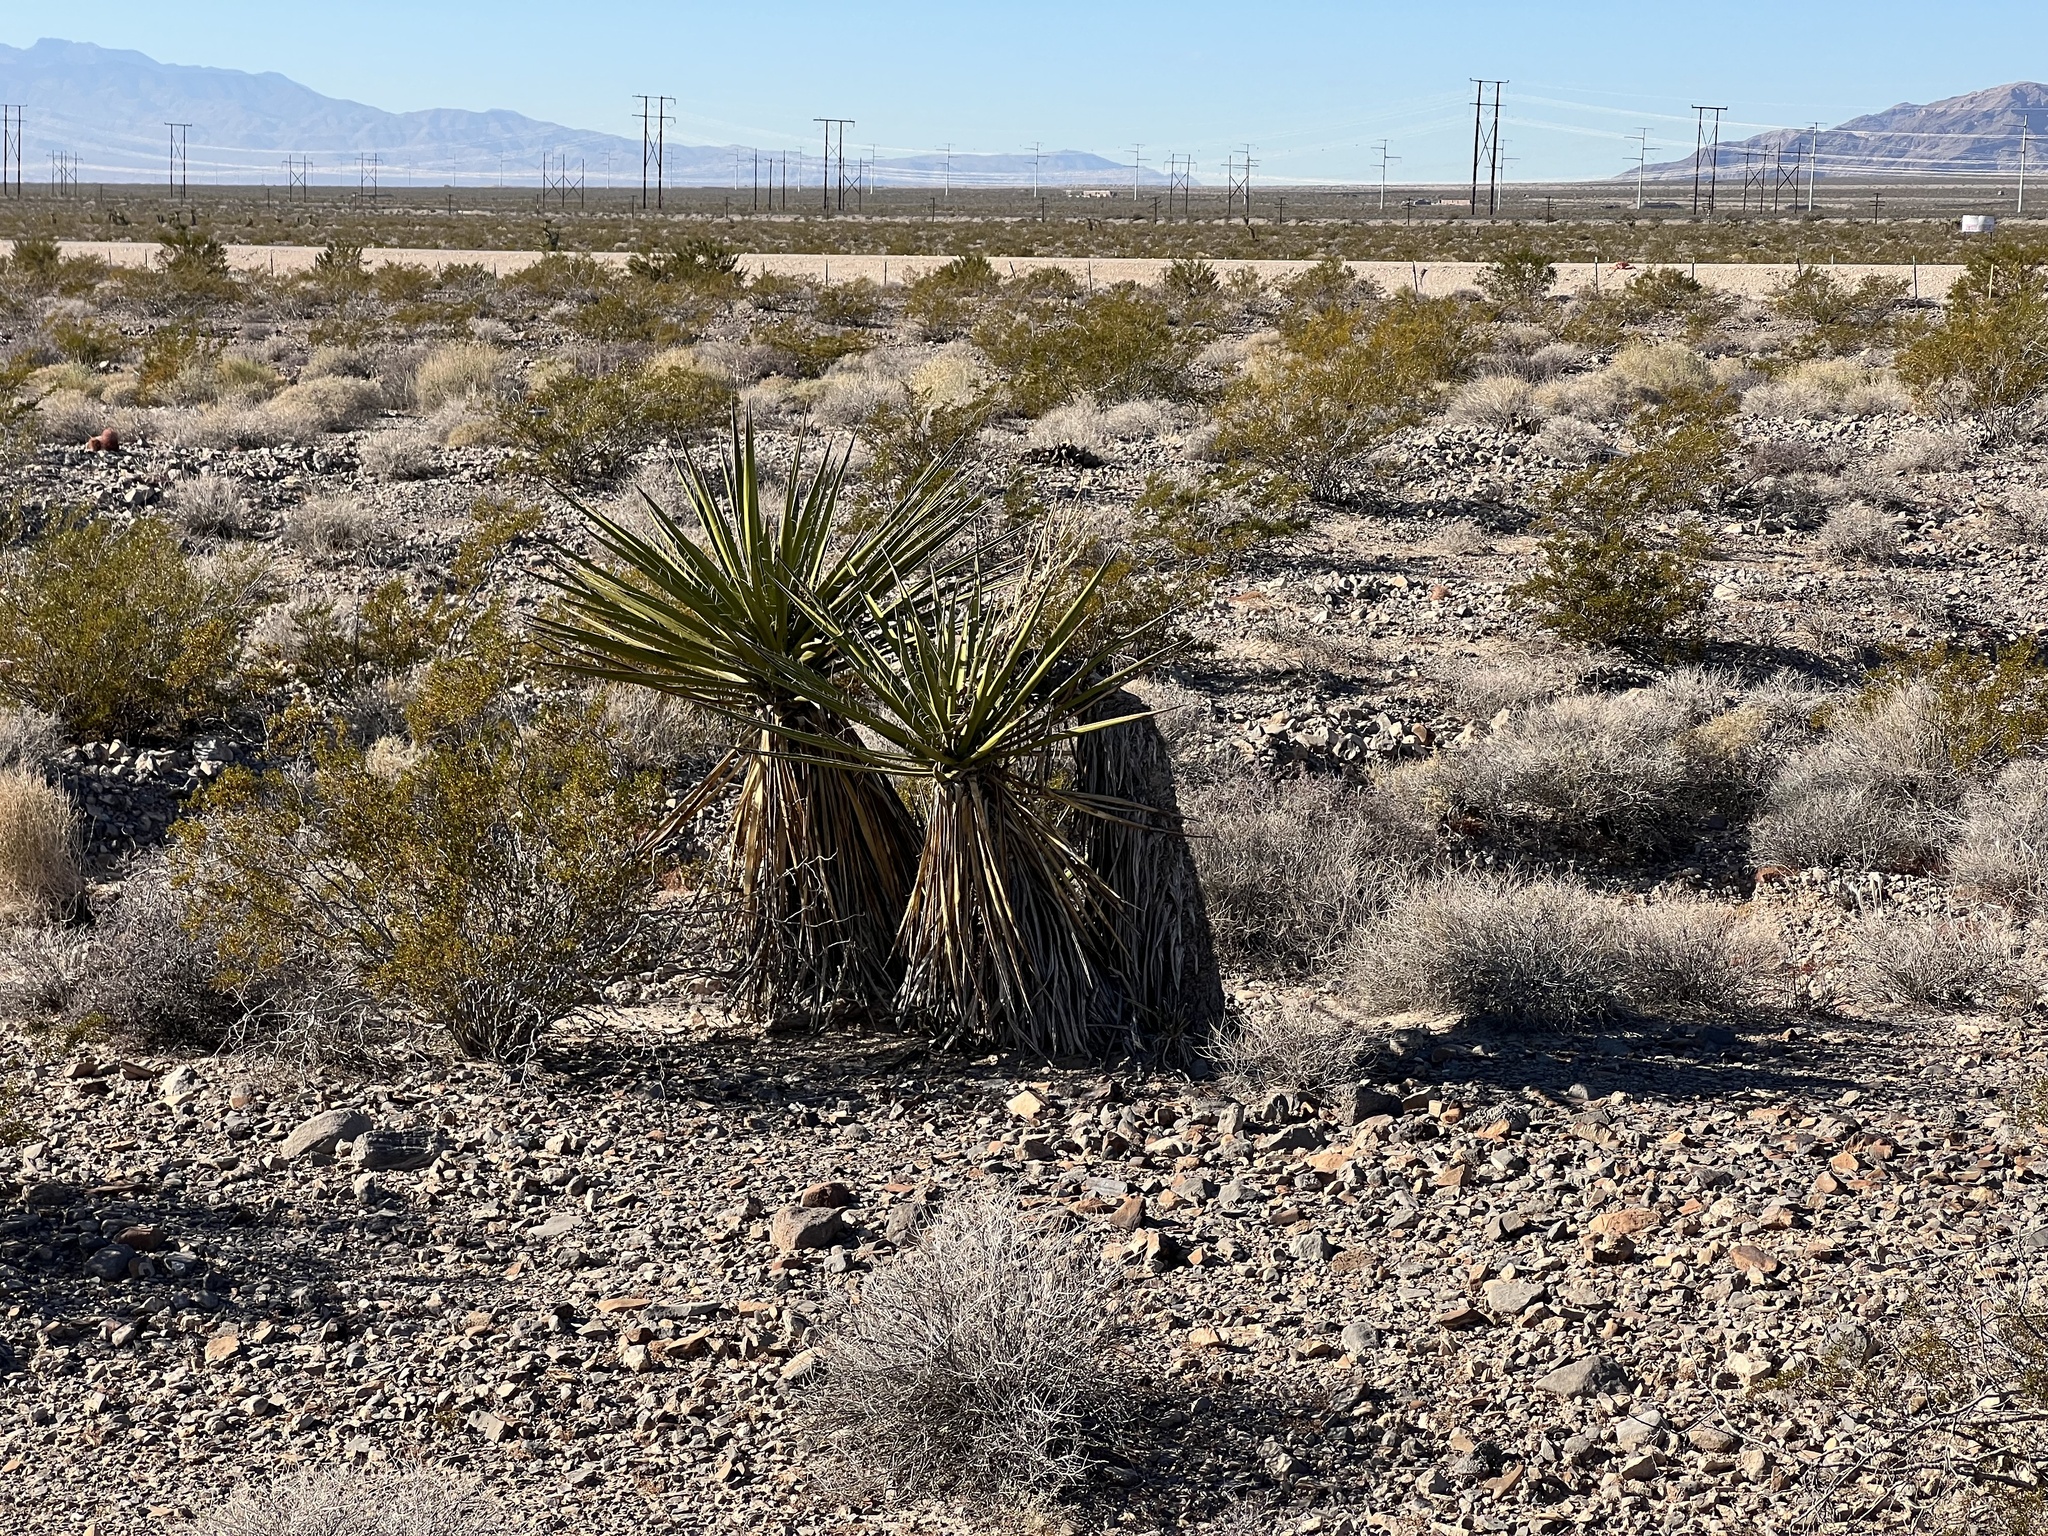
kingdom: Plantae
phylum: Tracheophyta
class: Liliopsida
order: Asparagales
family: Asparagaceae
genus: Yucca
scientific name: Yucca schidigera
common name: Mojave yucca
